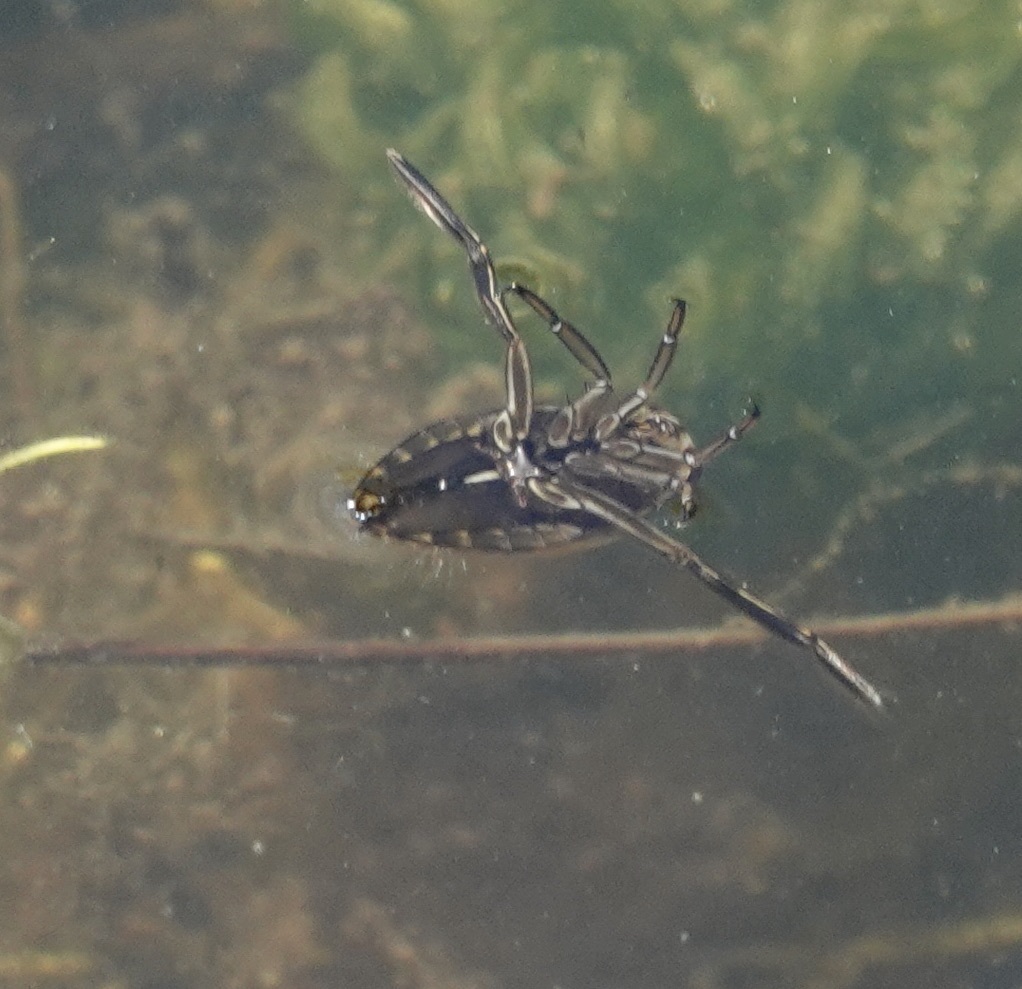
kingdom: Animalia
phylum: Arthropoda
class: Insecta
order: Hemiptera
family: Notonectidae
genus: Notonecta
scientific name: Notonecta
